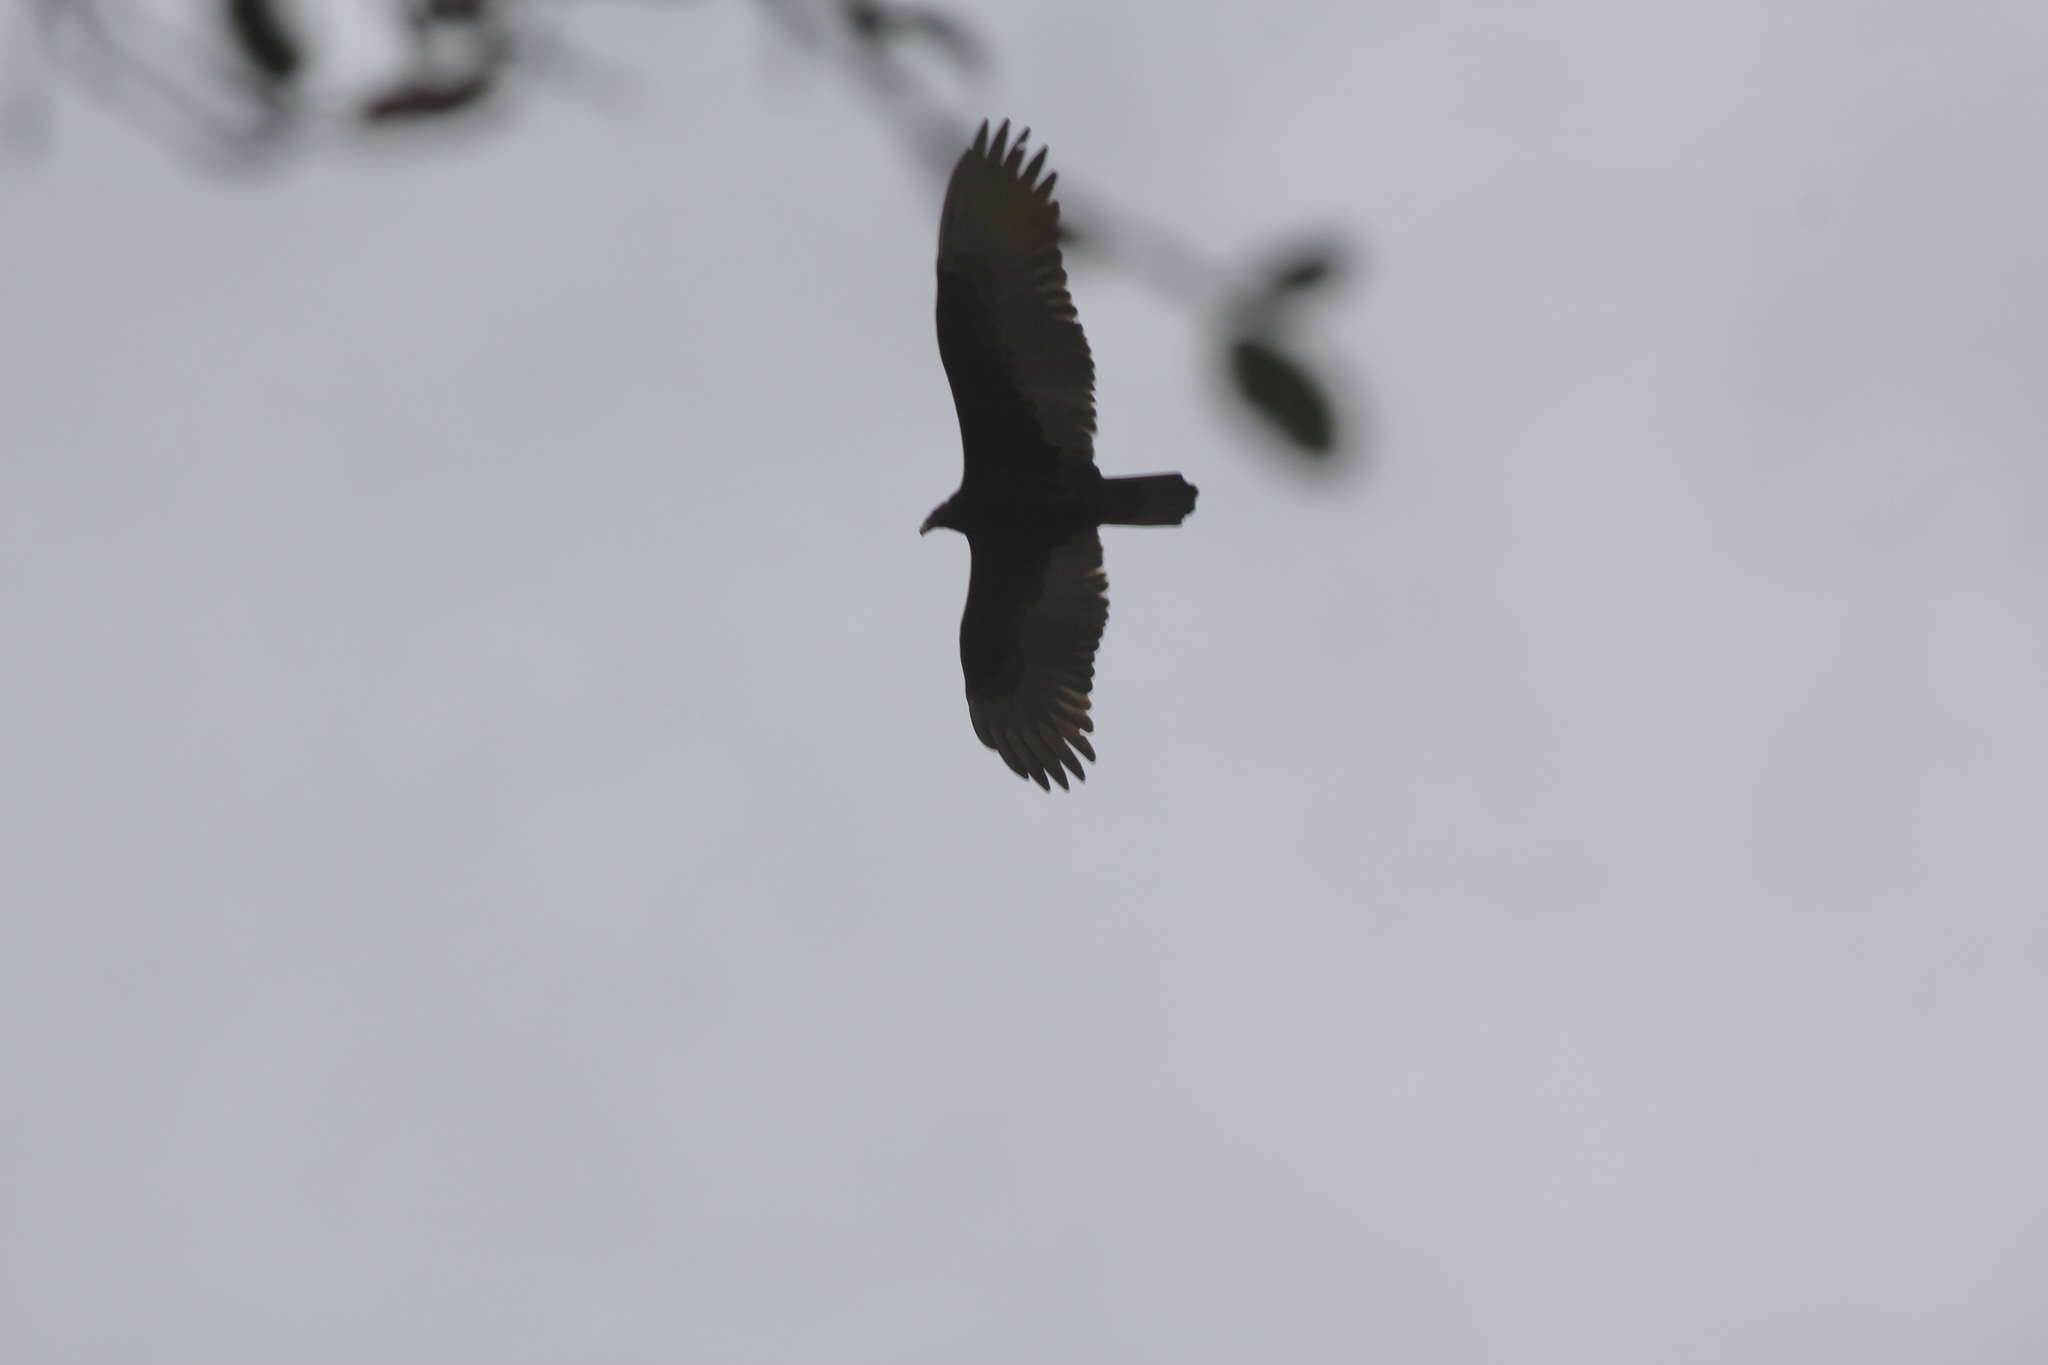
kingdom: Animalia
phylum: Chordata
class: Aves
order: Accipitriformes
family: Cathartidae
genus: Cathartes
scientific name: Cathartes aura
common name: Turkey vulture
